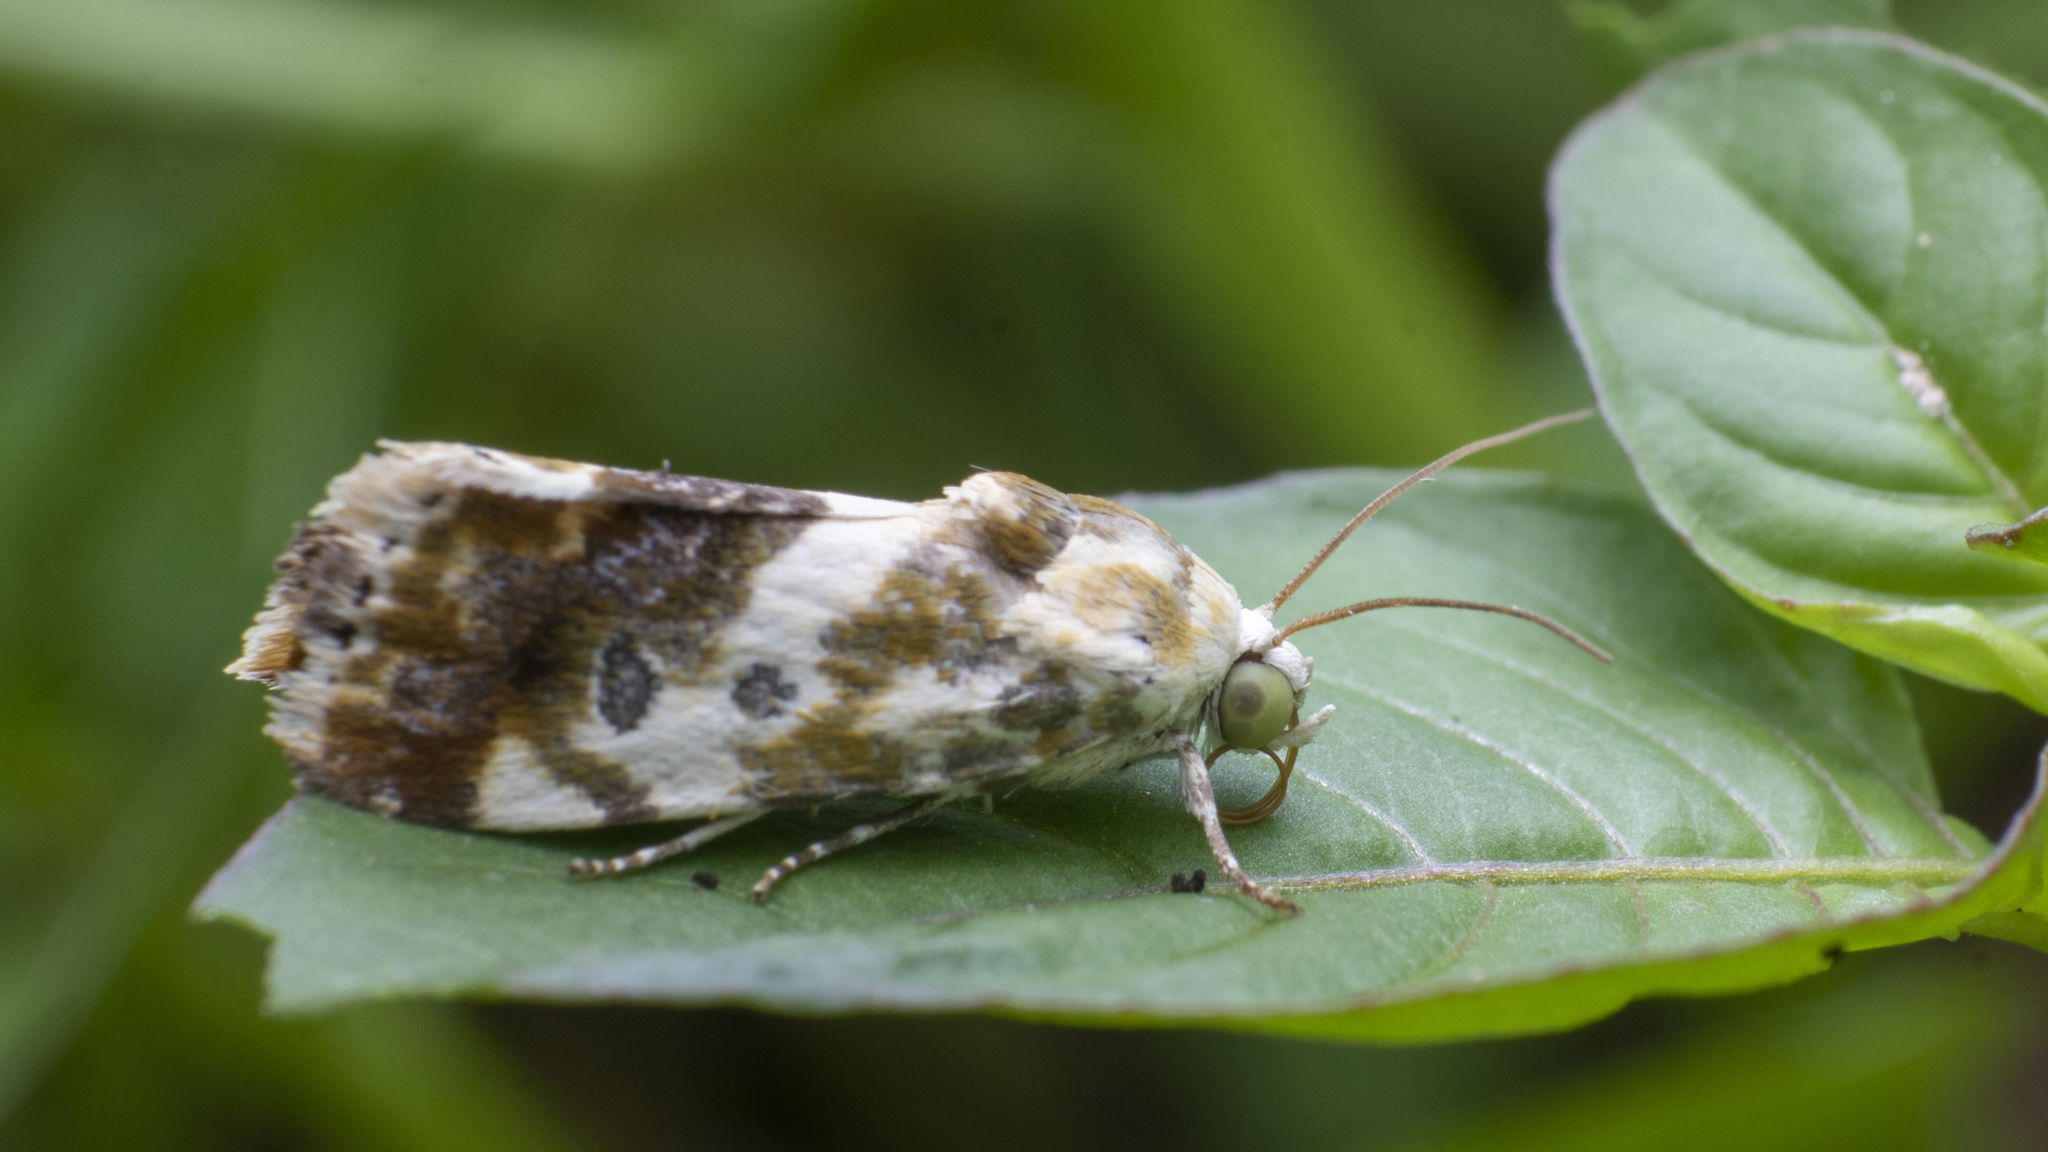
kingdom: Animalia
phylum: Arthropoda
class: Insecta
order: Lepidoptera
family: Noctuidae
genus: Acontia
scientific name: Acontia marmoralis
